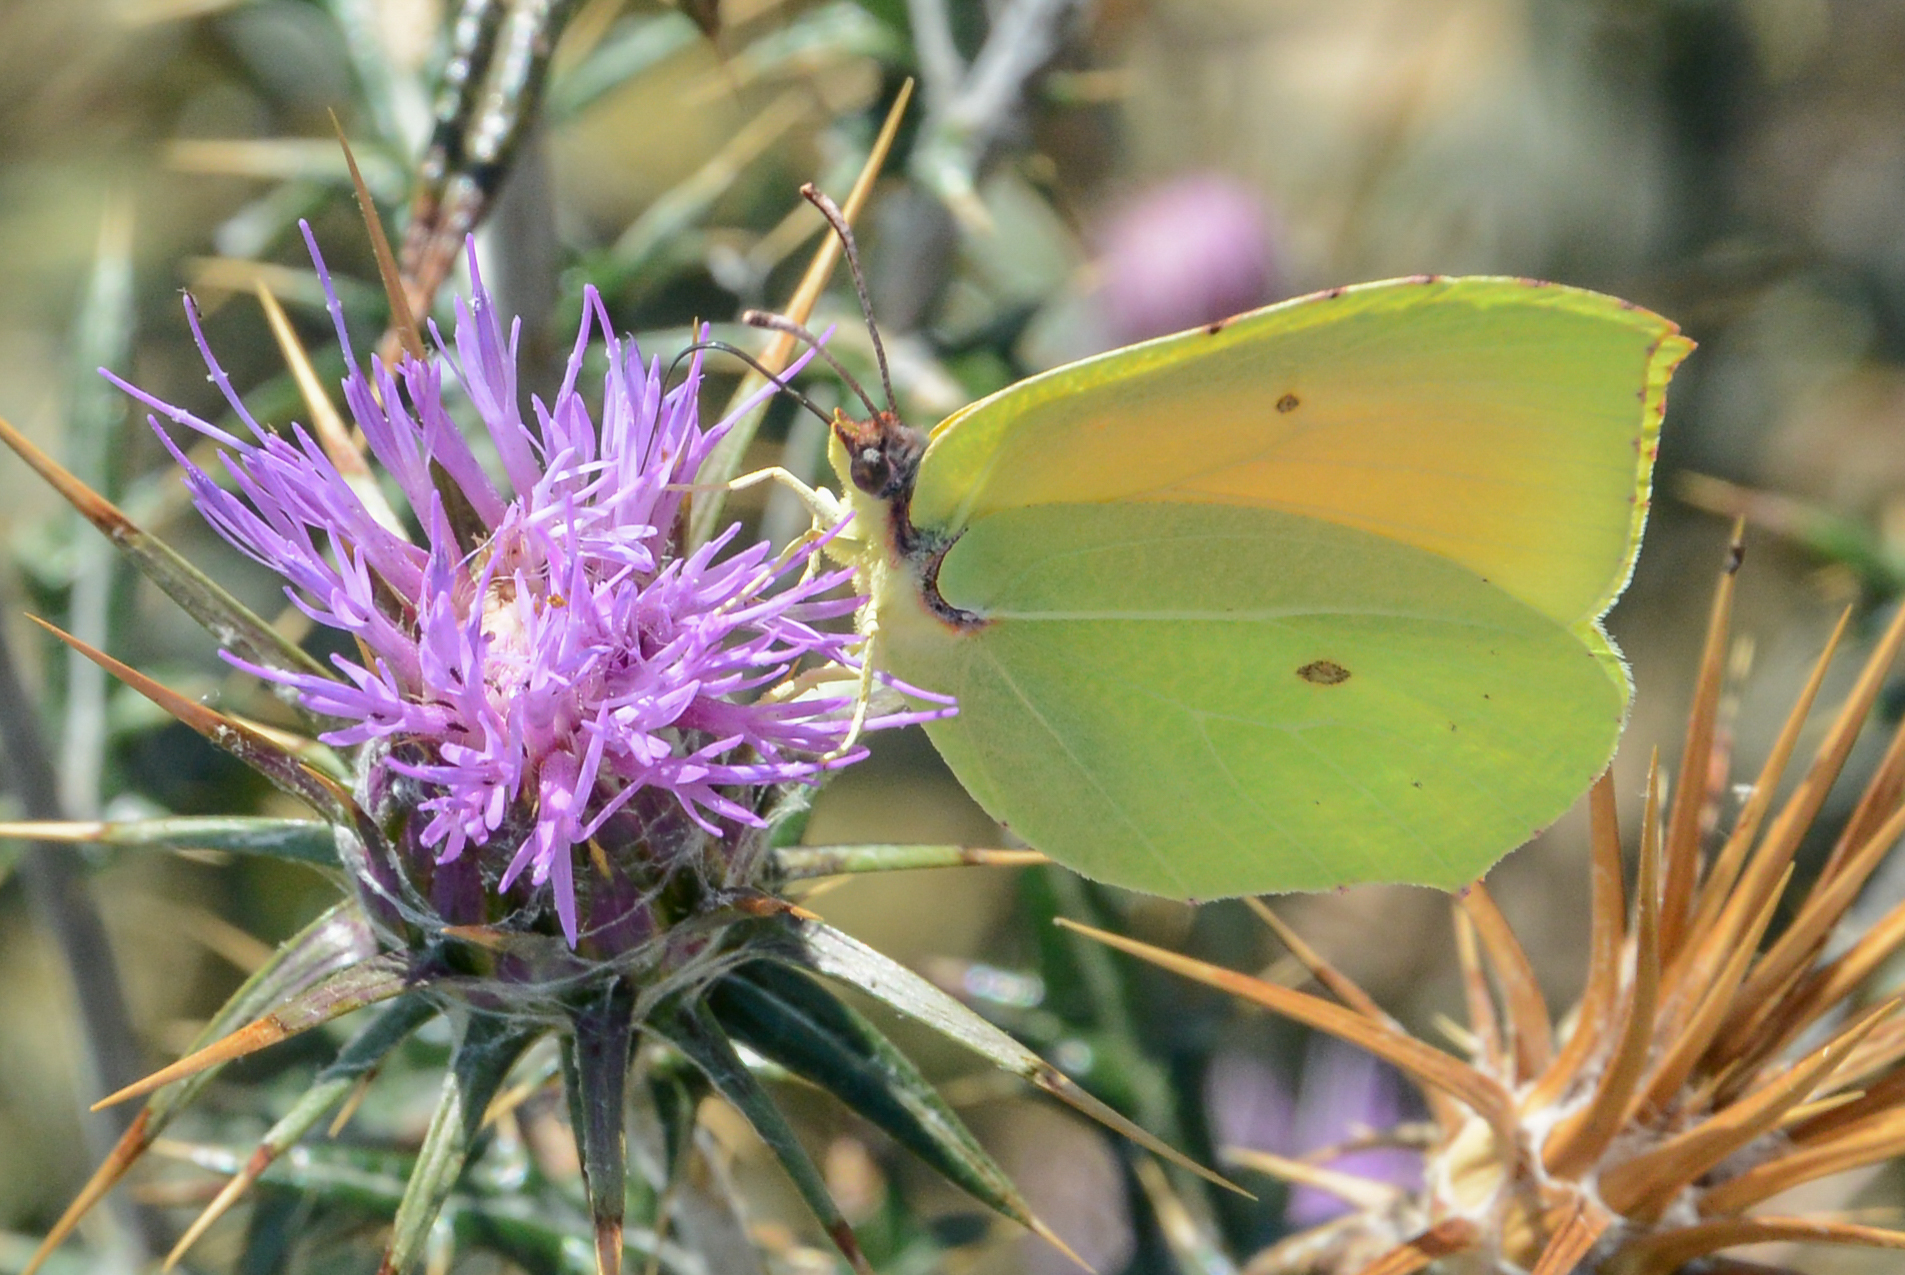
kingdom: Animalia
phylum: Arthropoda
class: Insecta
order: Lepidoptera
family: Pieridae
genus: Gonepteryx
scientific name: Gonepteryx cleopatra
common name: Cleopatra
